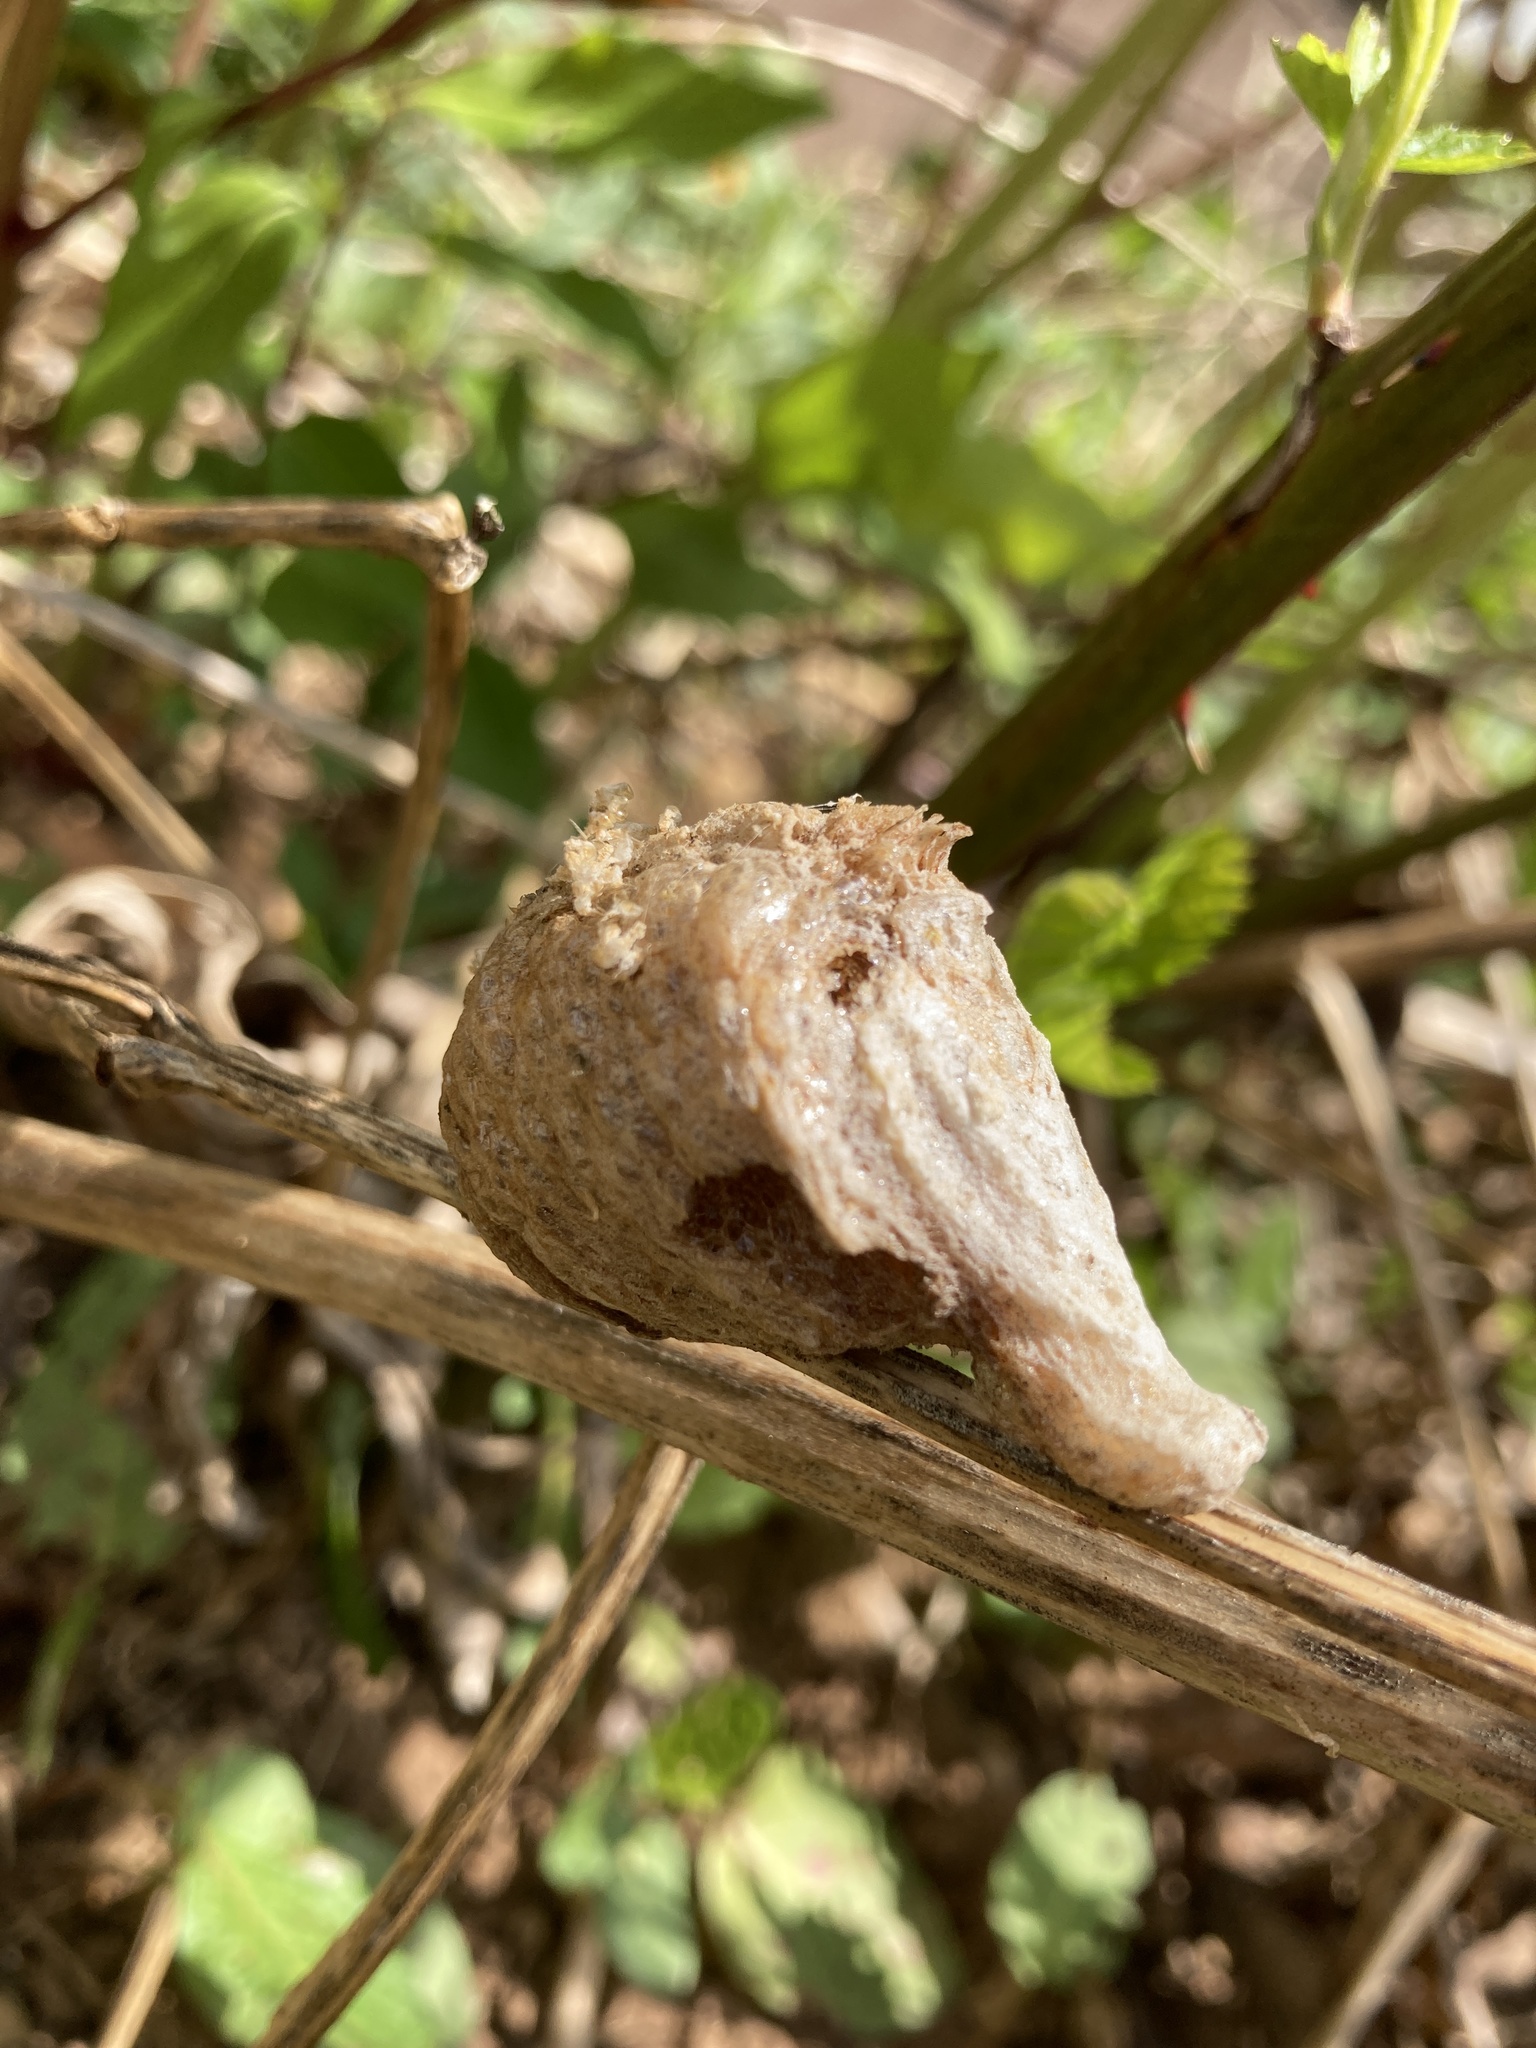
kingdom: Animalia
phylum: Arthropoda
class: Insecta
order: Mantodea
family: Mantidae
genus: Tenodera
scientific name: Tenodera sinensis
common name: Chinese mantis
